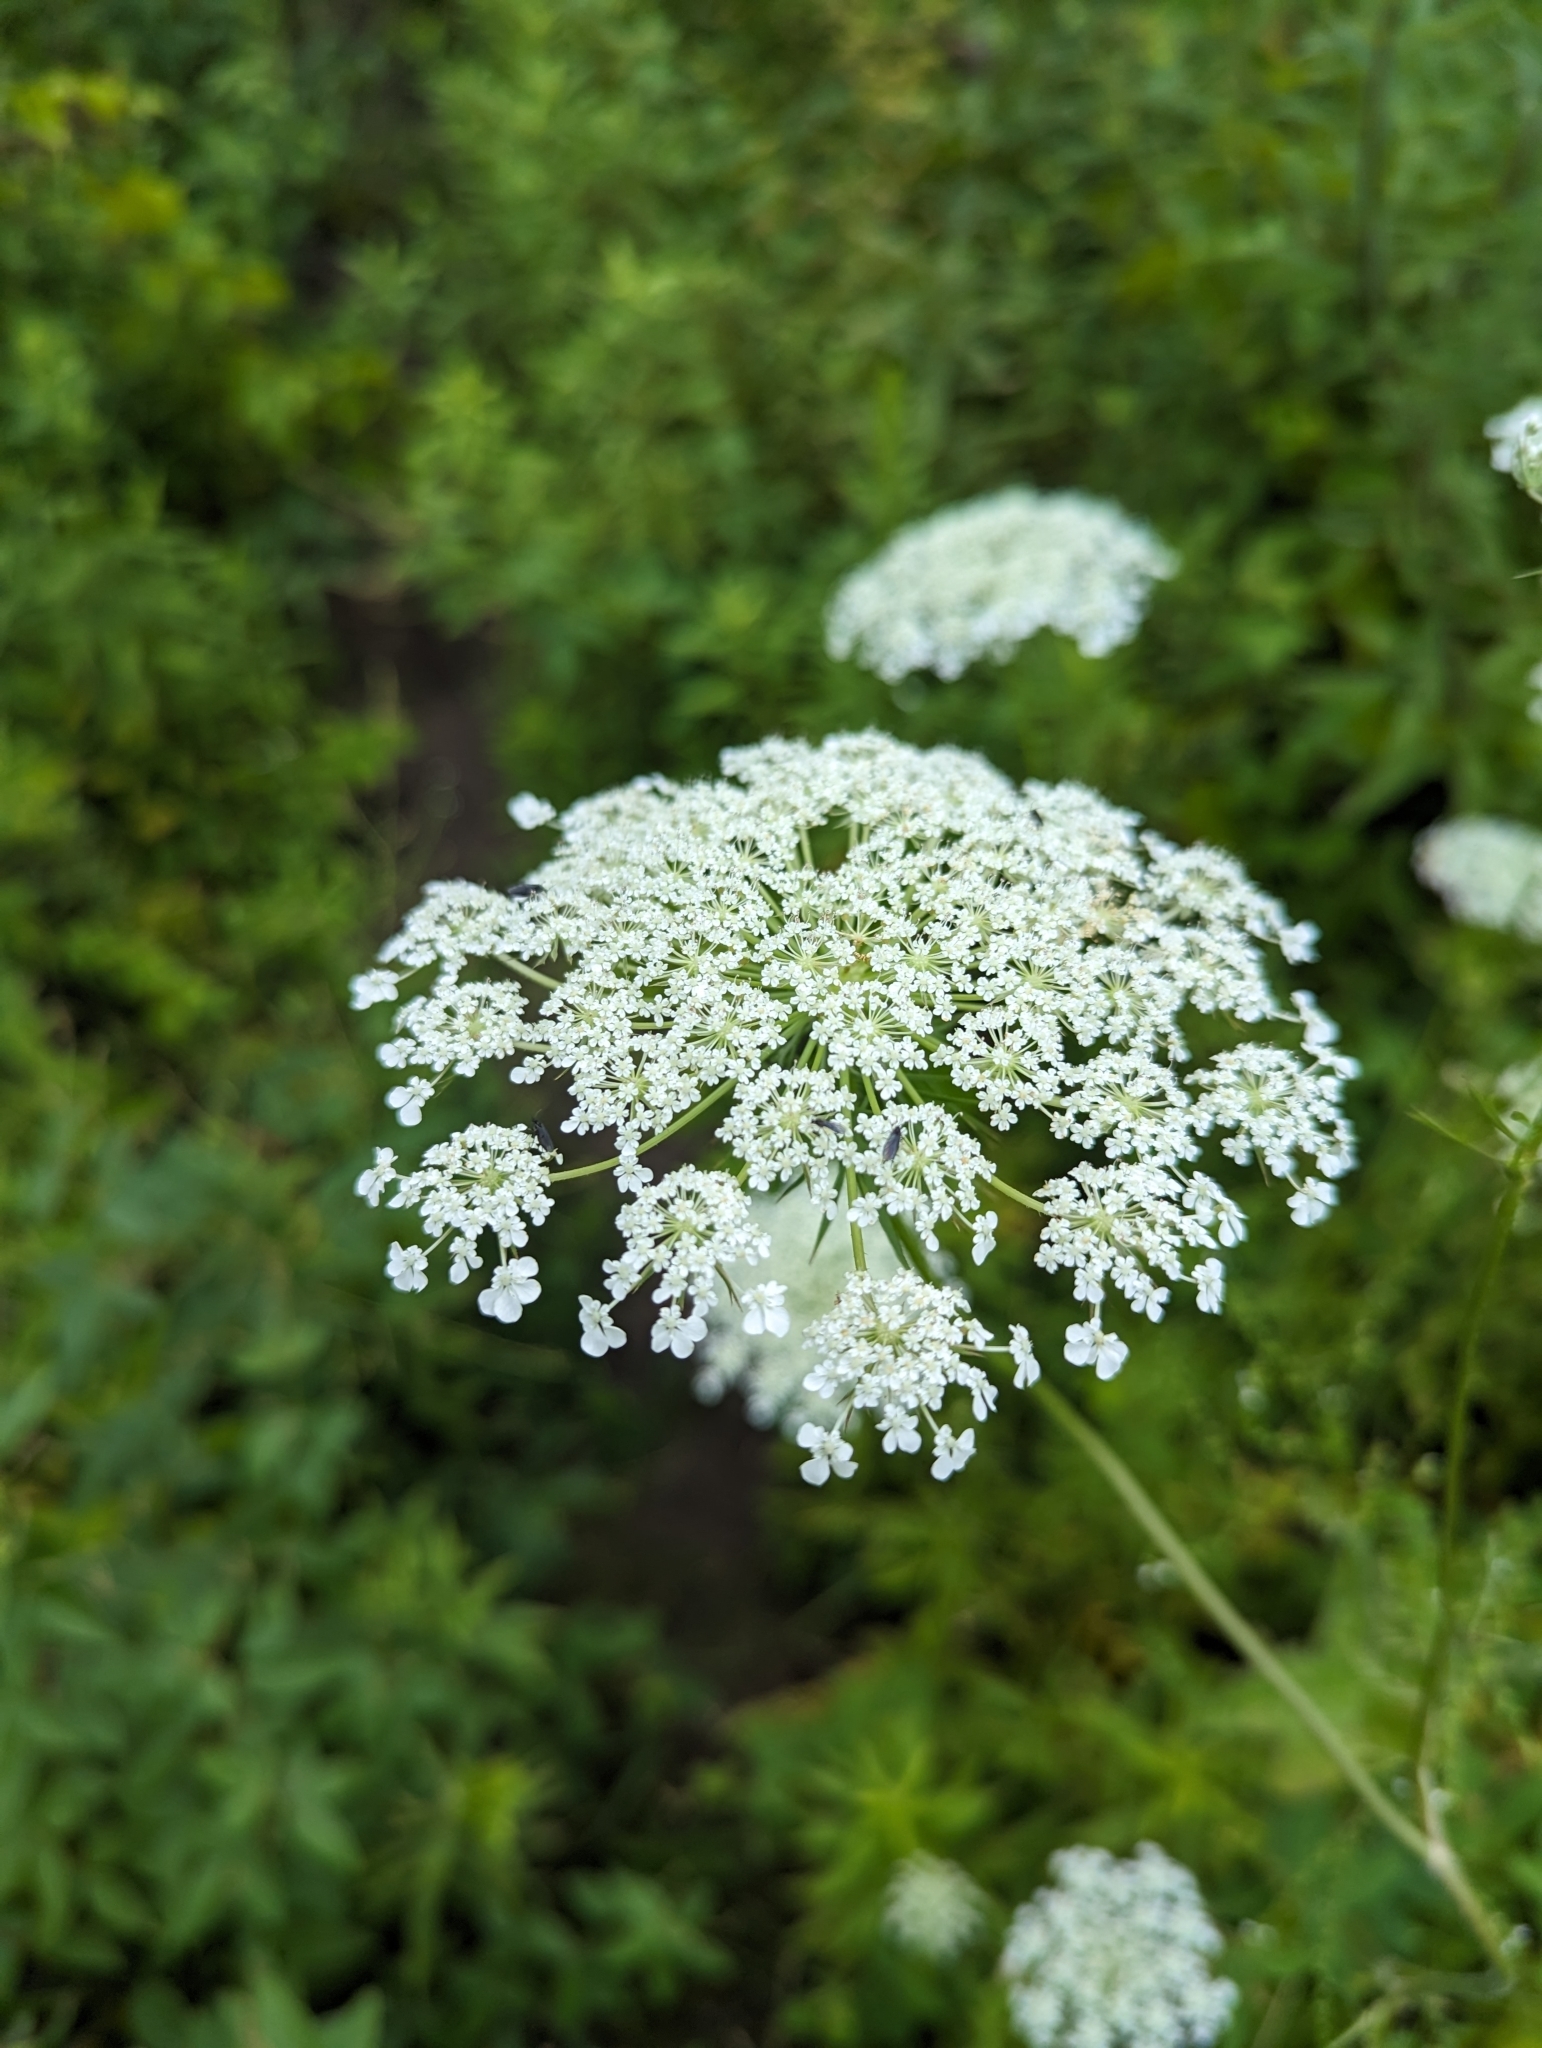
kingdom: Plantae
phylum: Tracheophyta
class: Magnoliopsida
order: Apiales
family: Apiaceae
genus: Daucus
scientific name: Daucus carota
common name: Wild carrot
